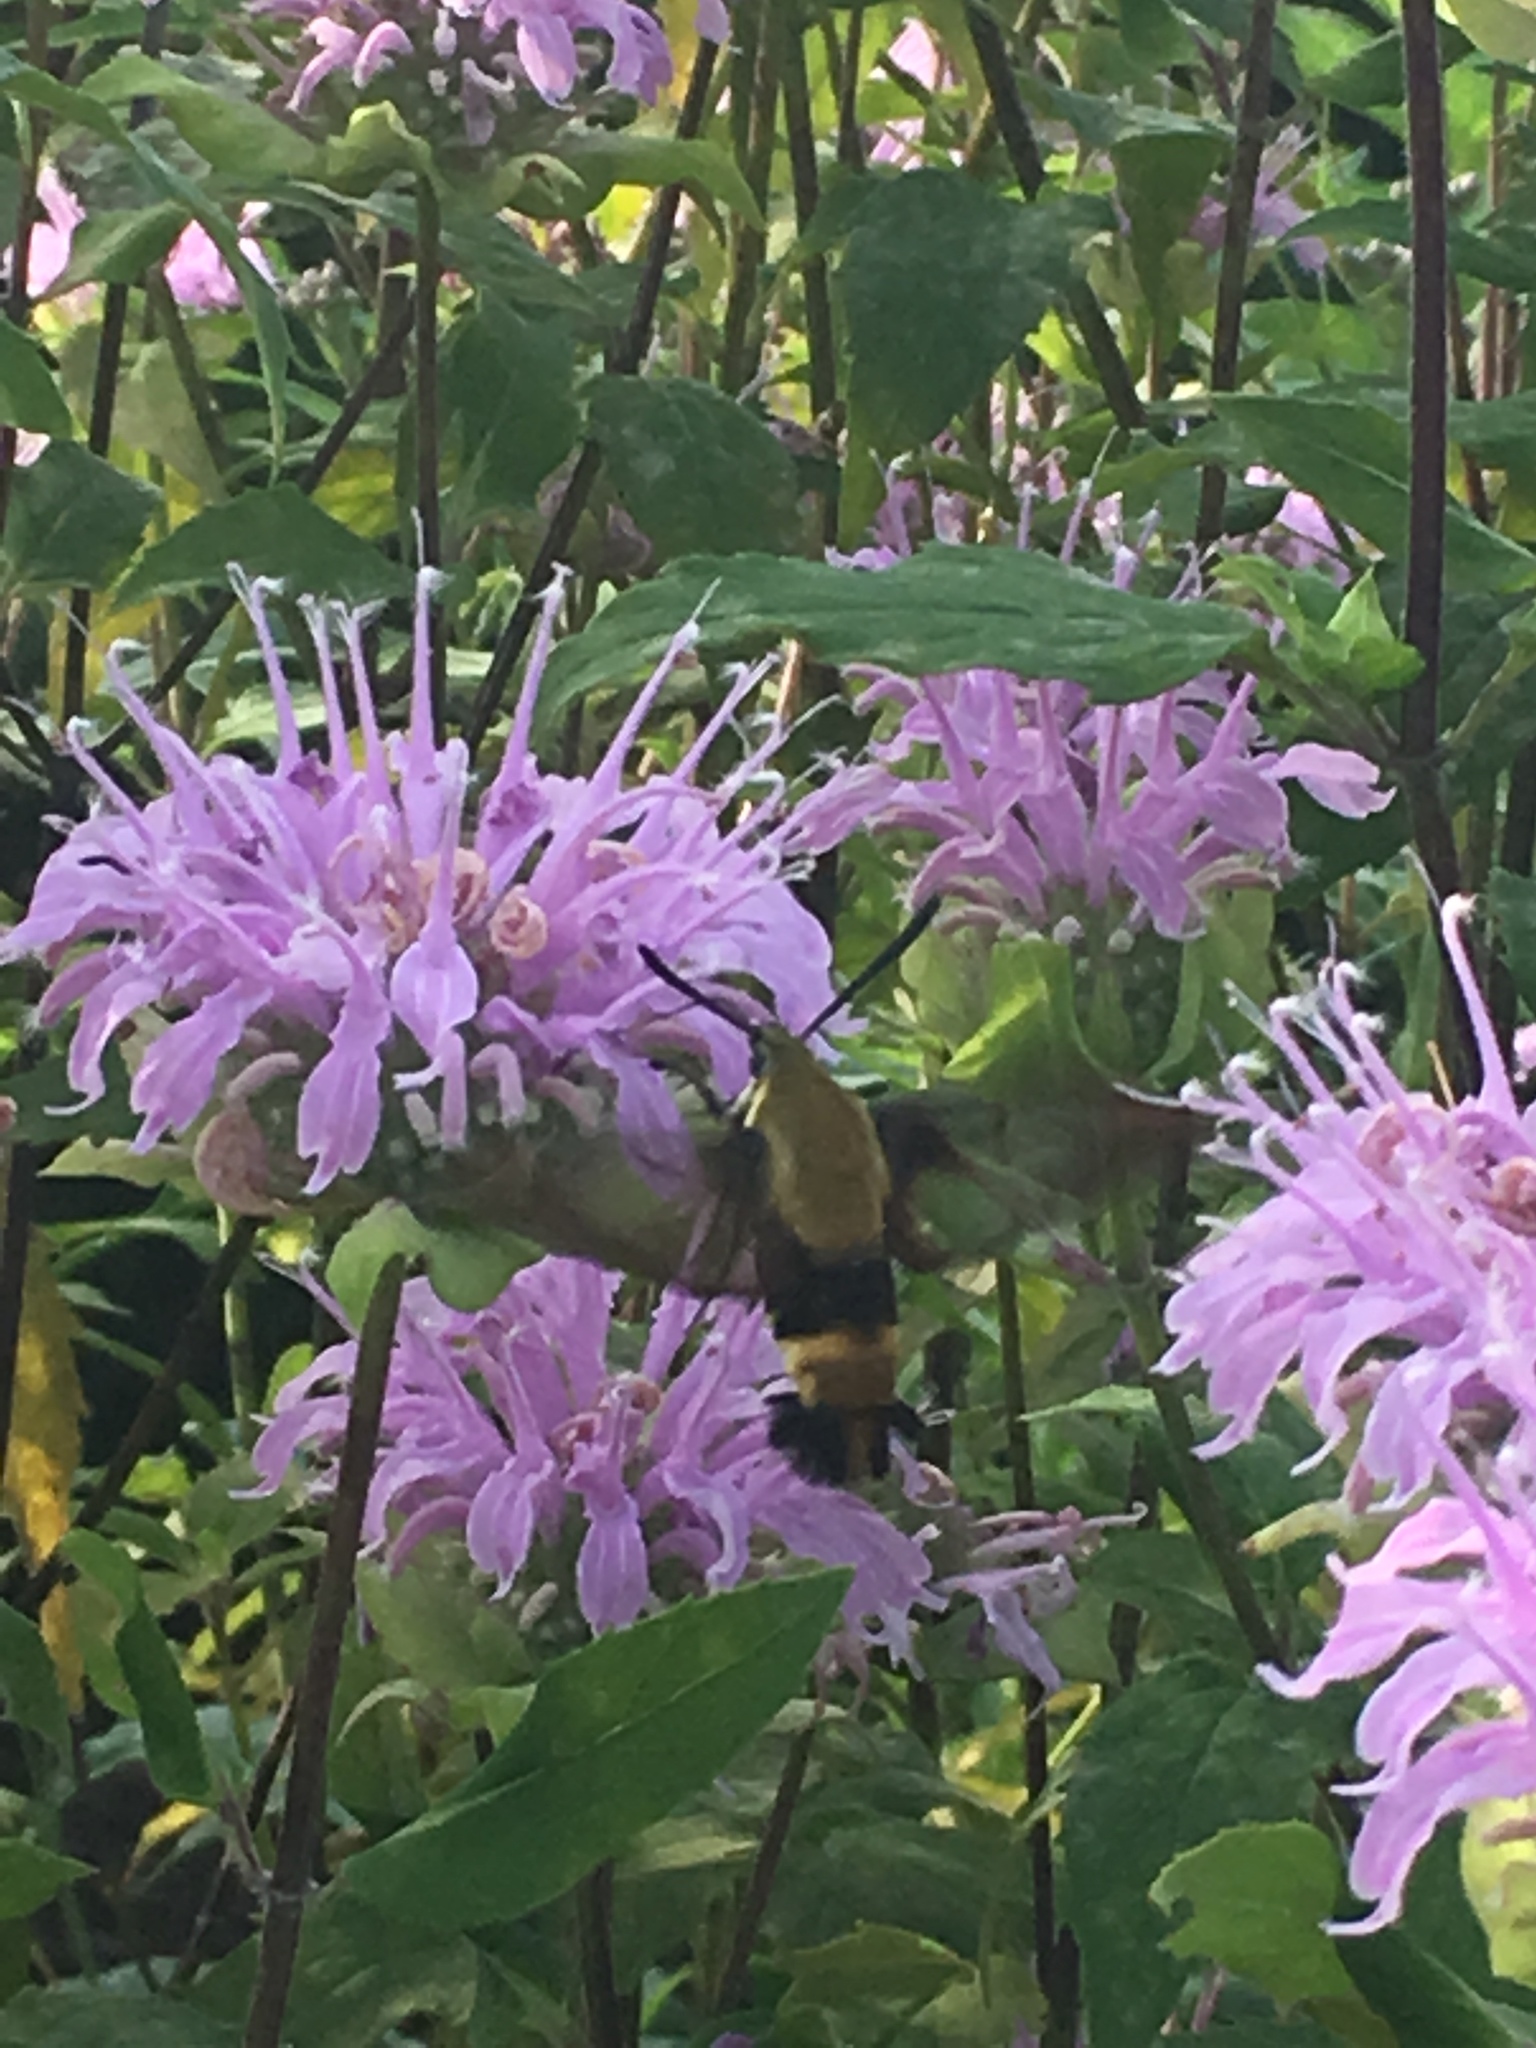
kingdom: Animalia
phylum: Arthropoda
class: Insecta
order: Lepidoptera
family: Sphingidae
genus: Hemaris
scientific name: Hemaris diffinis
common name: Bumblebee moth
